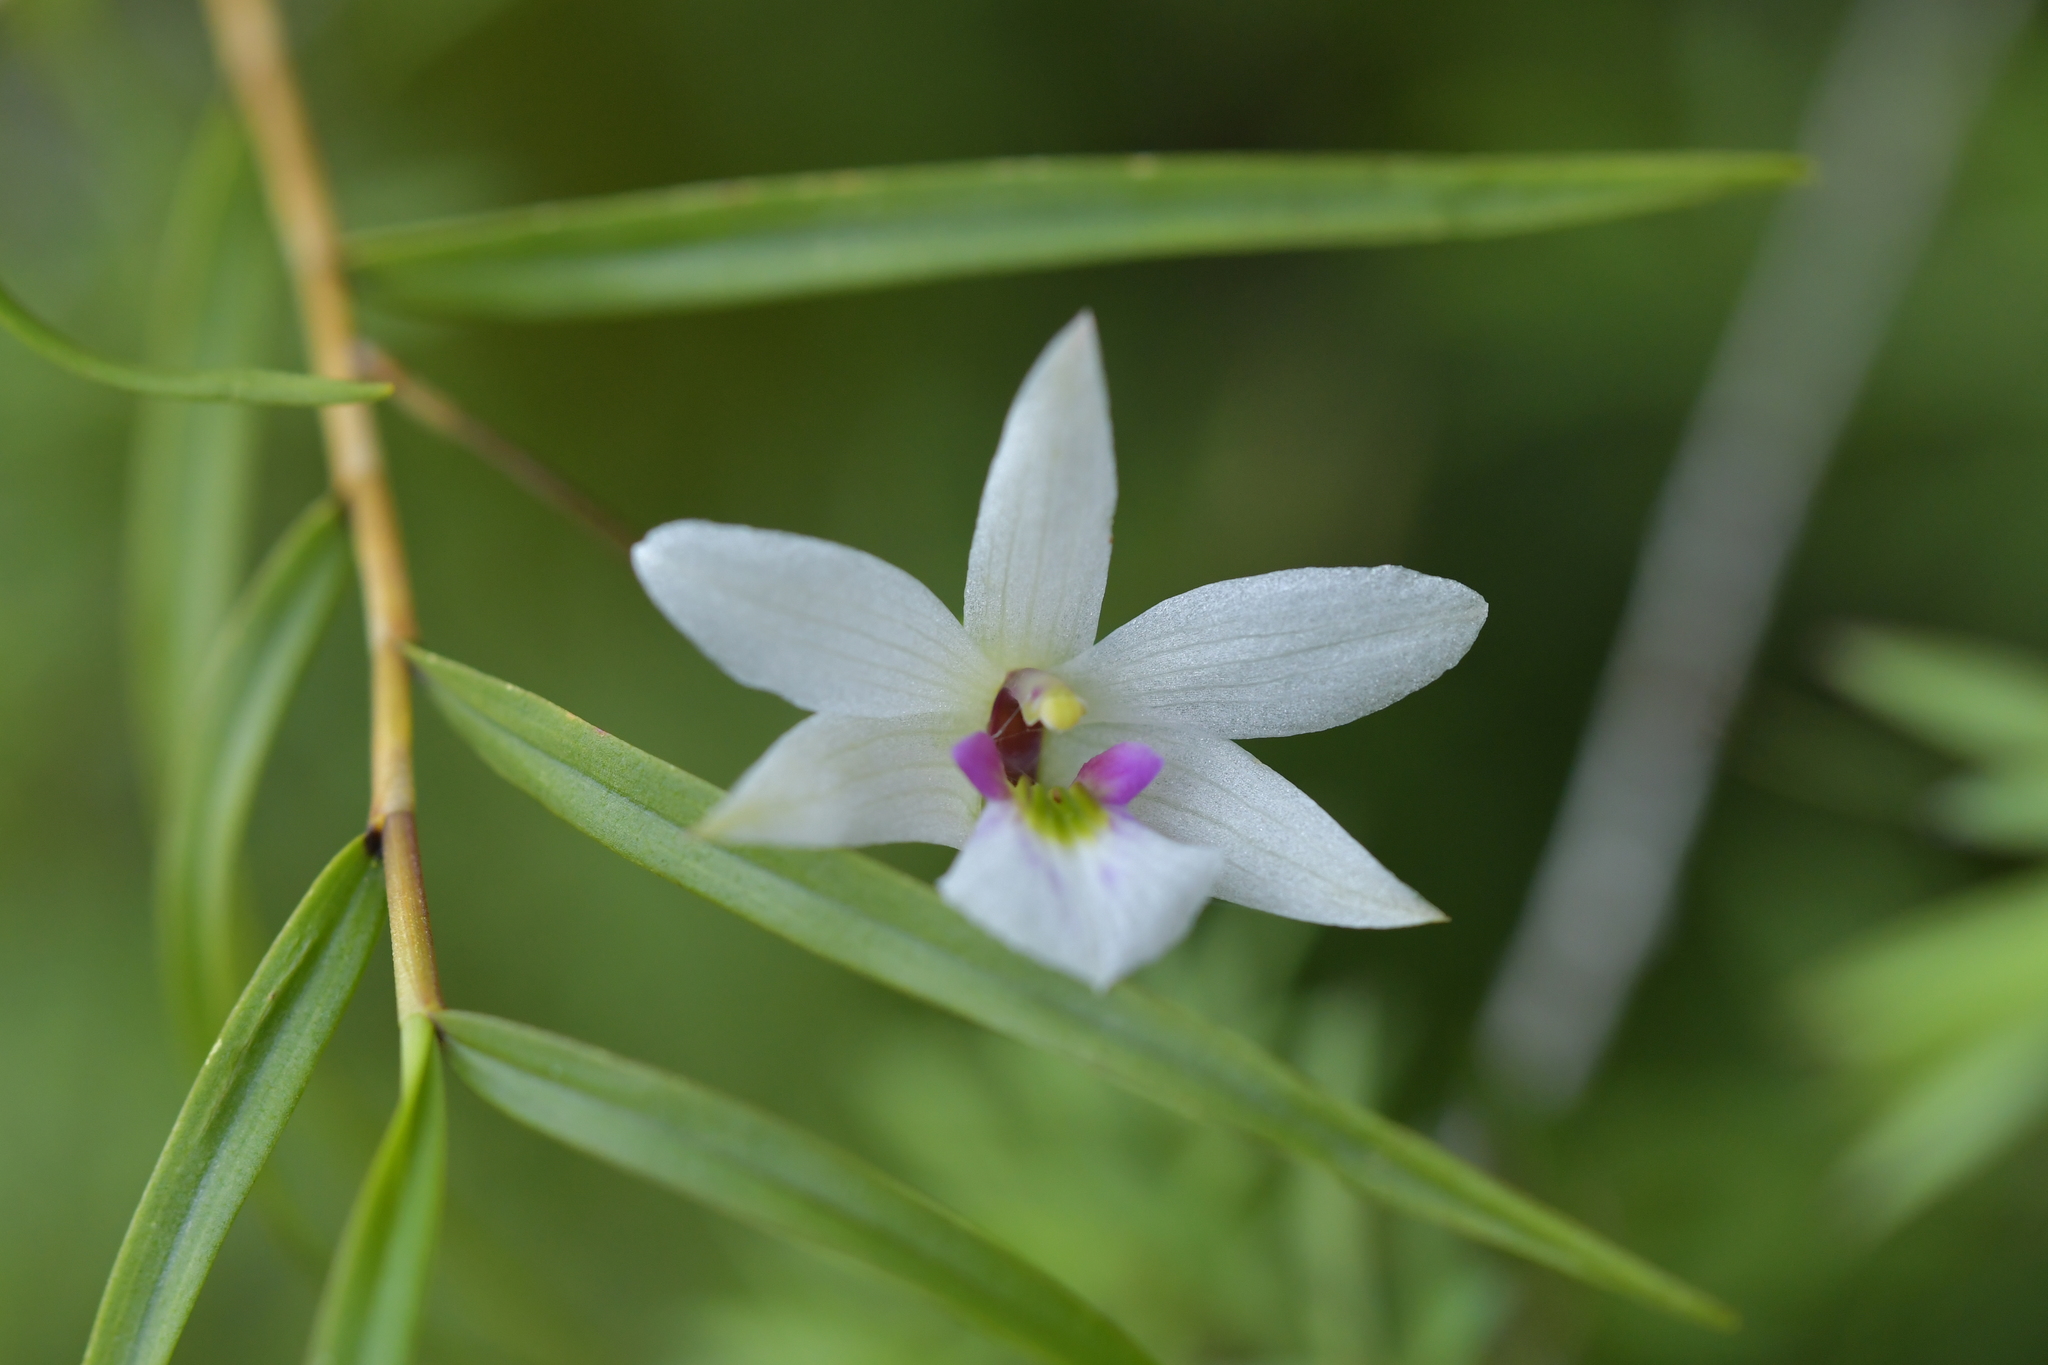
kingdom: Plantae
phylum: Tracheophyta
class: Liliopsida
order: Asparagales
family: Orchidaceae
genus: Dendrobium
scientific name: Dendrobium cunninghamii
